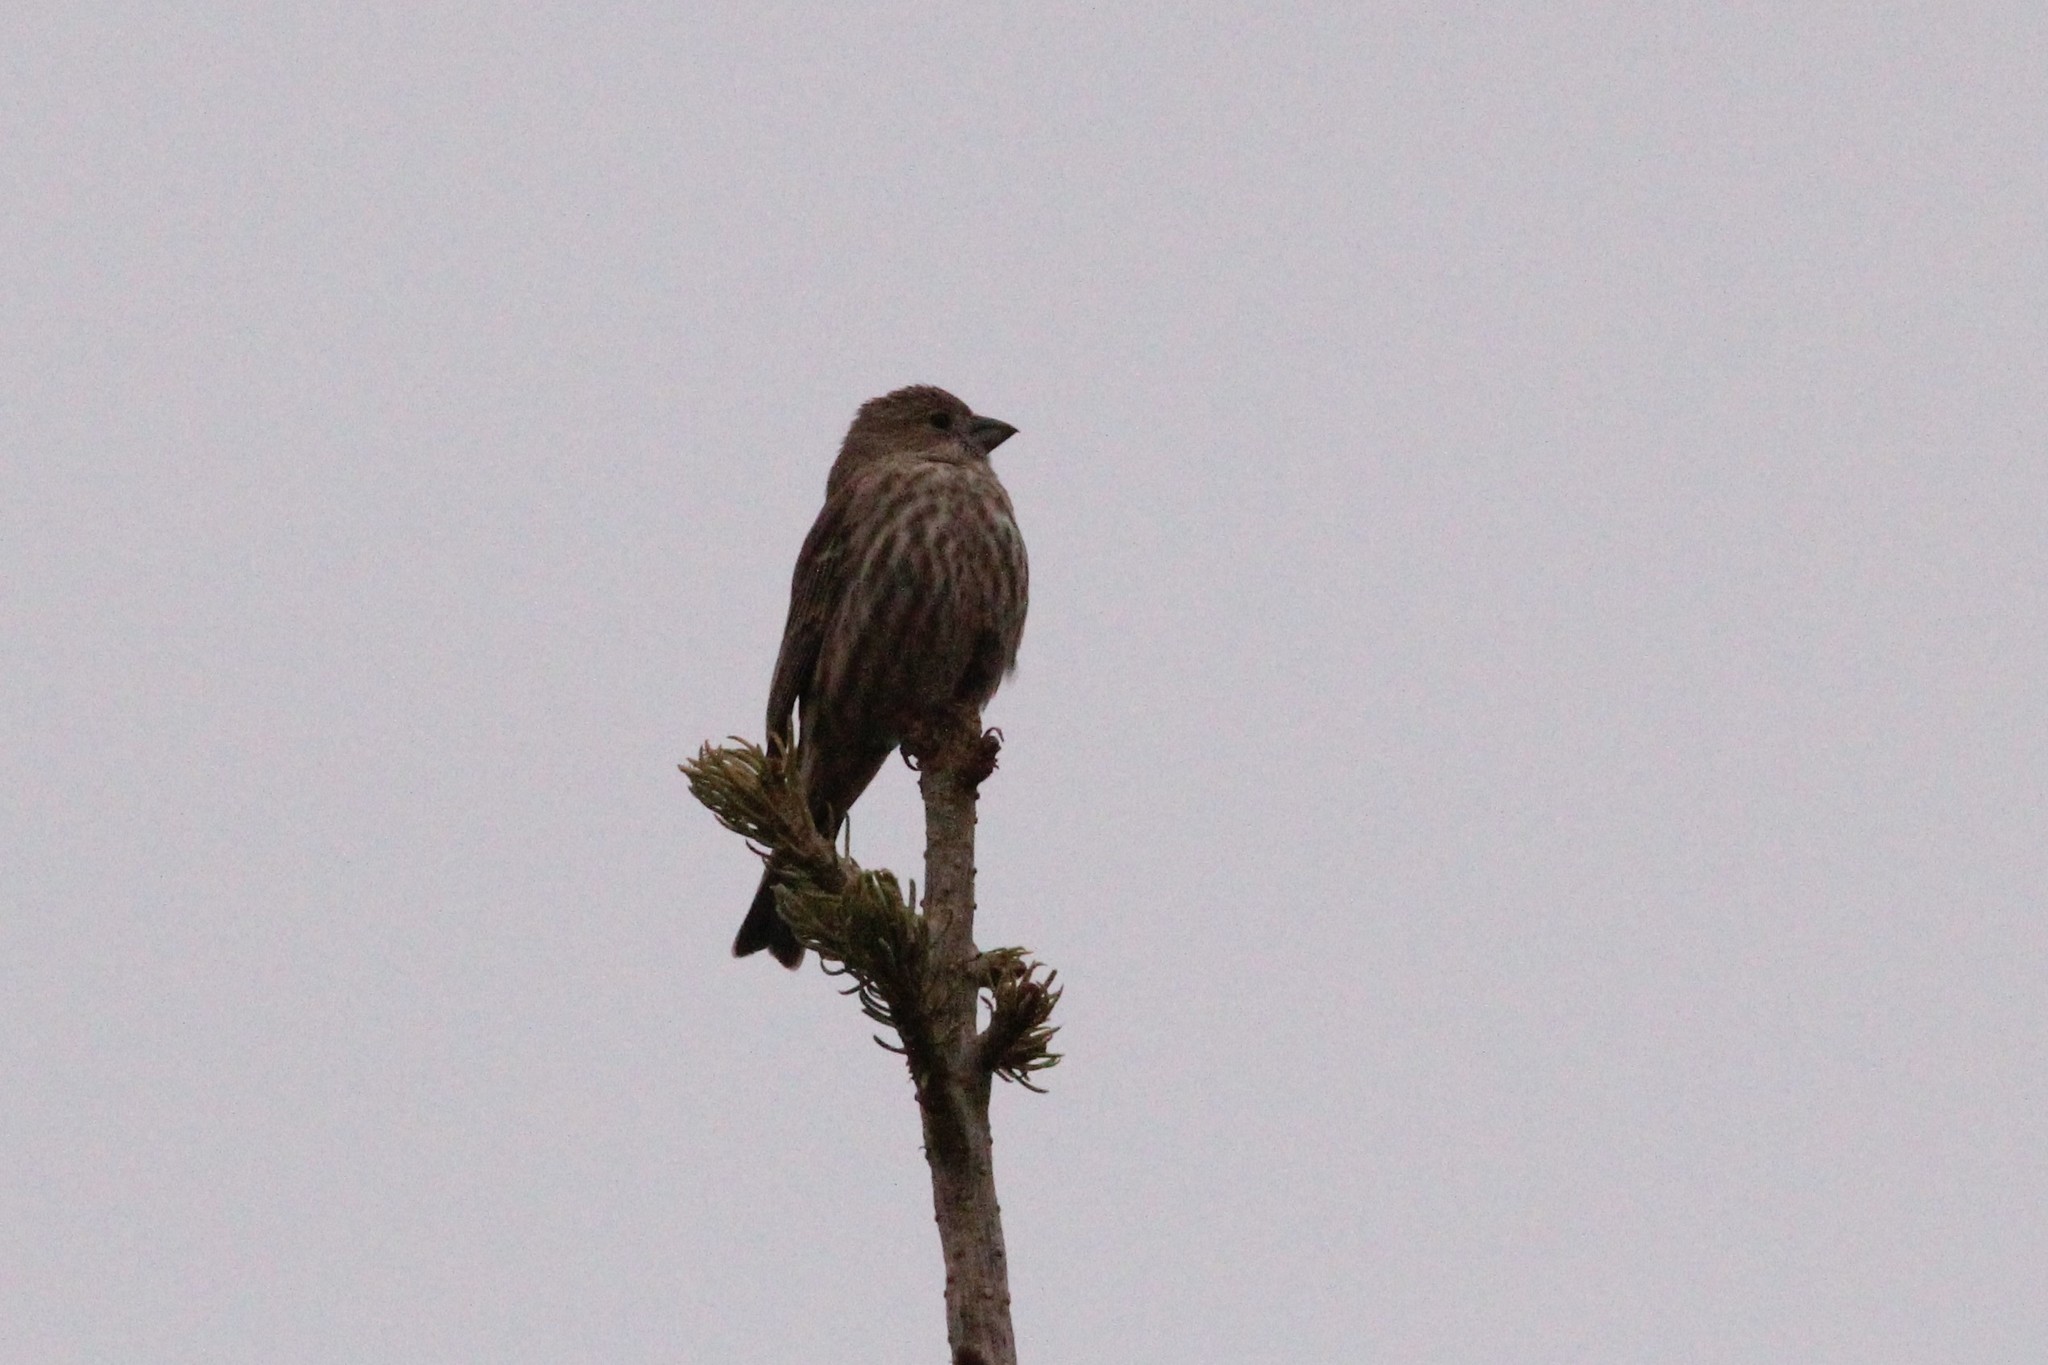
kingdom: Animalia
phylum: Chordata
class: Aves
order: Passeriformes
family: Fringillidae
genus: Haemorhous
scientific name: Haemorhous mexicanus
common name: House finch
